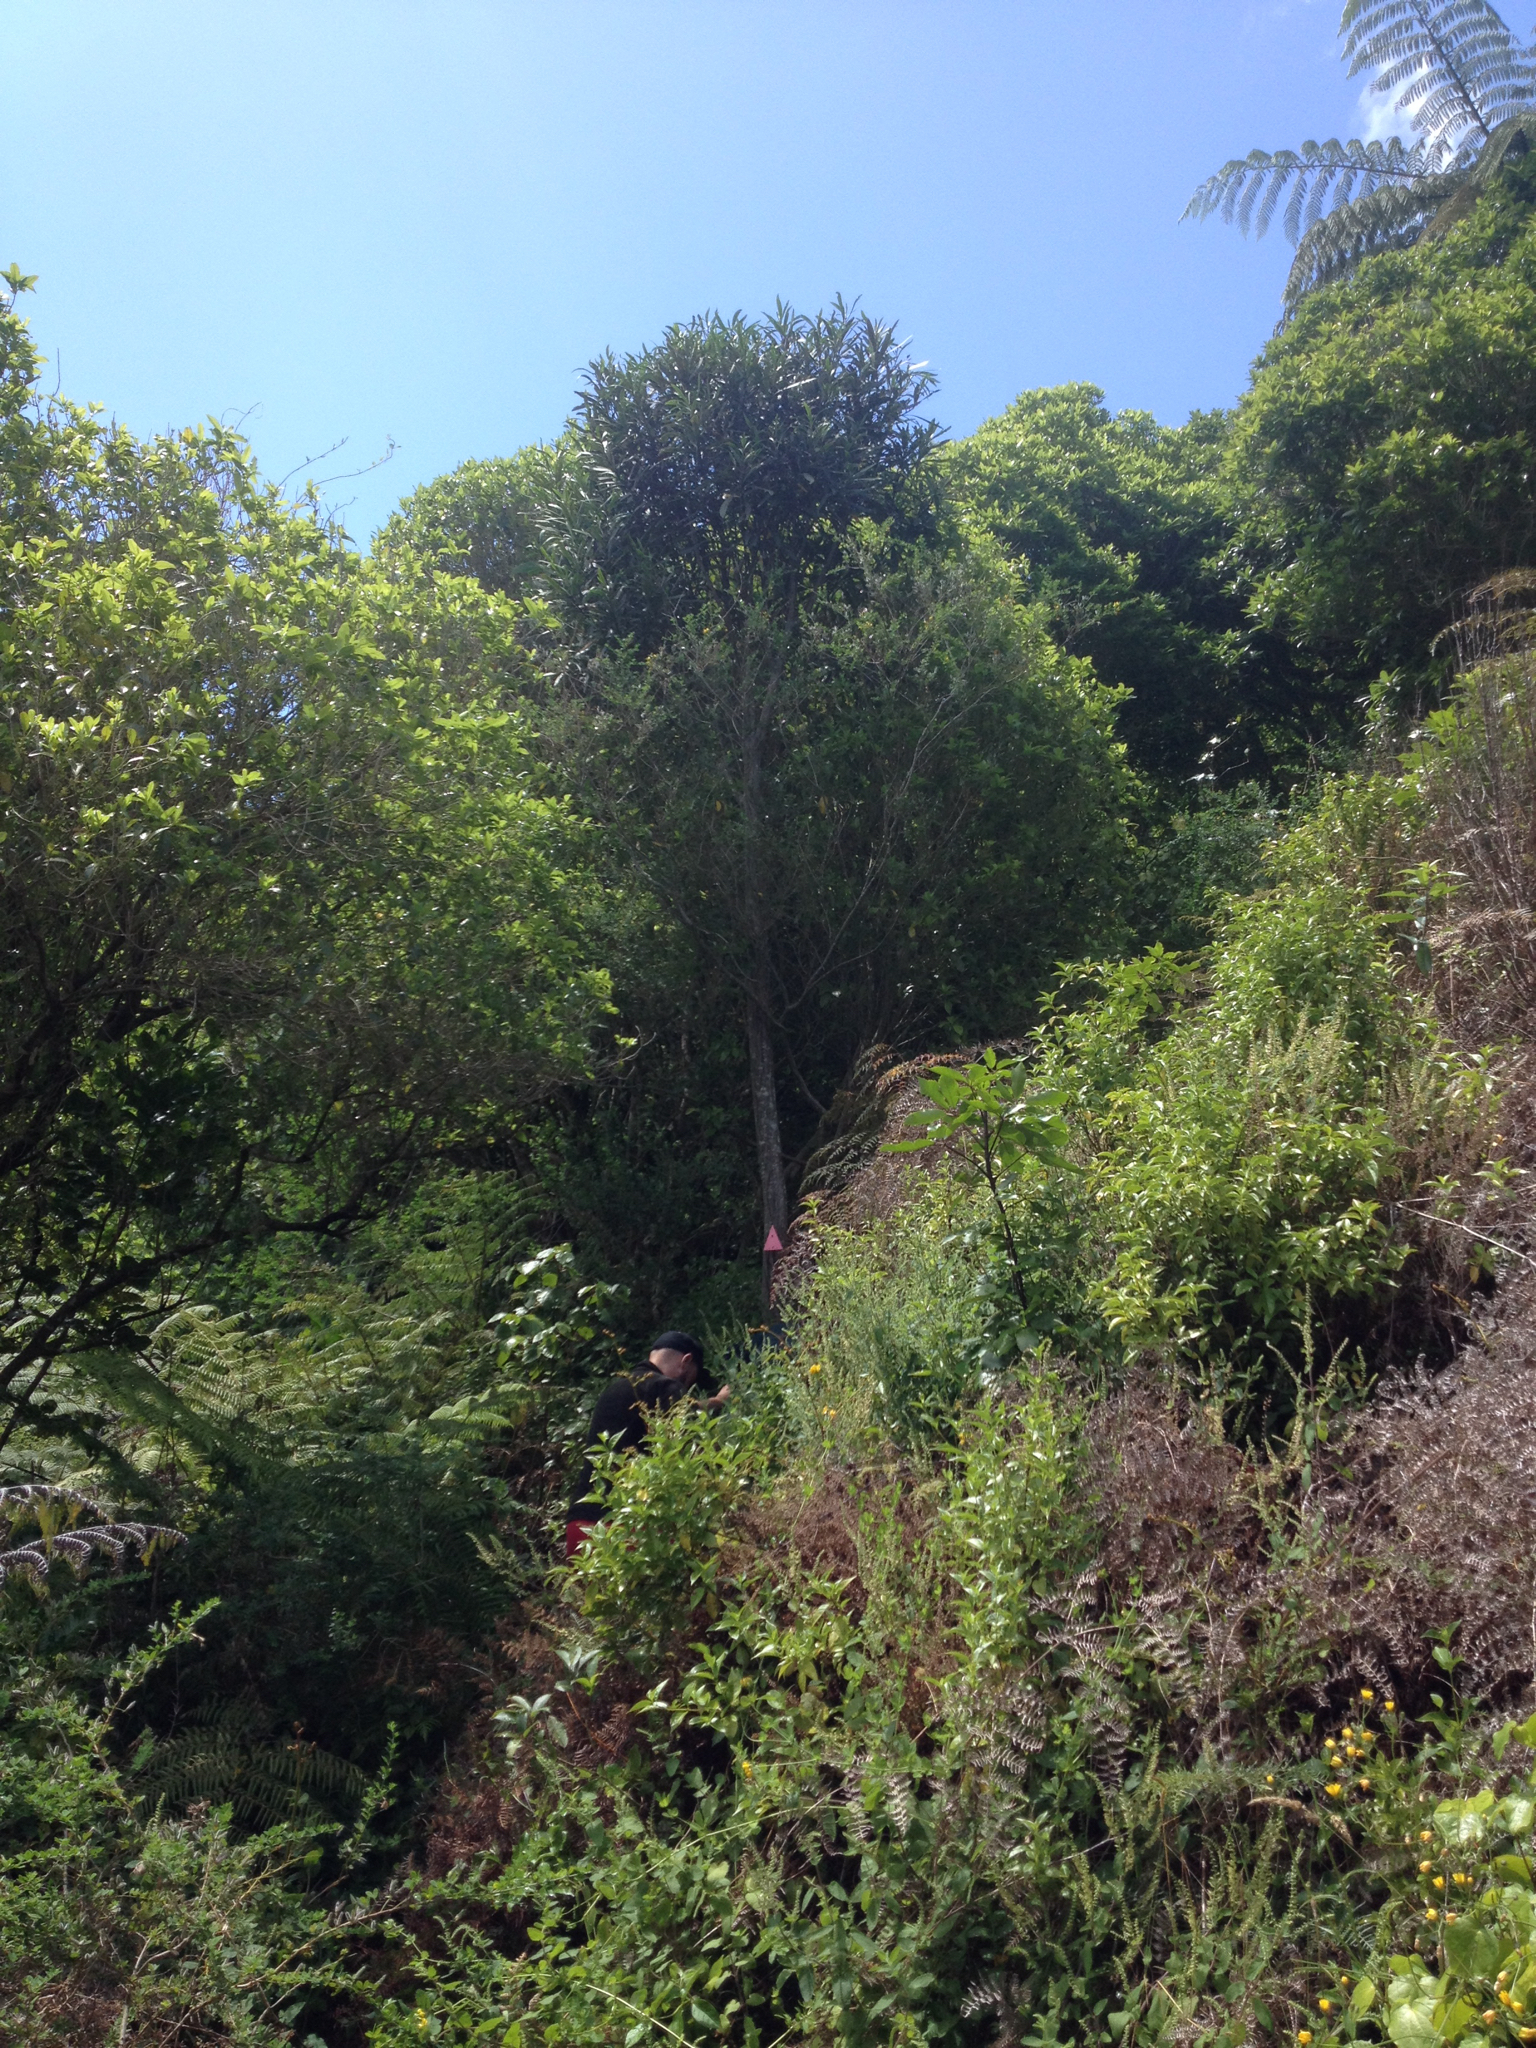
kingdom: Plantae
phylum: Tracheophyta
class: Magnoliopsida
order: Apiales
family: Araliaceae
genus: Pseudopanax
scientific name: Pseudopanax crassifolius
